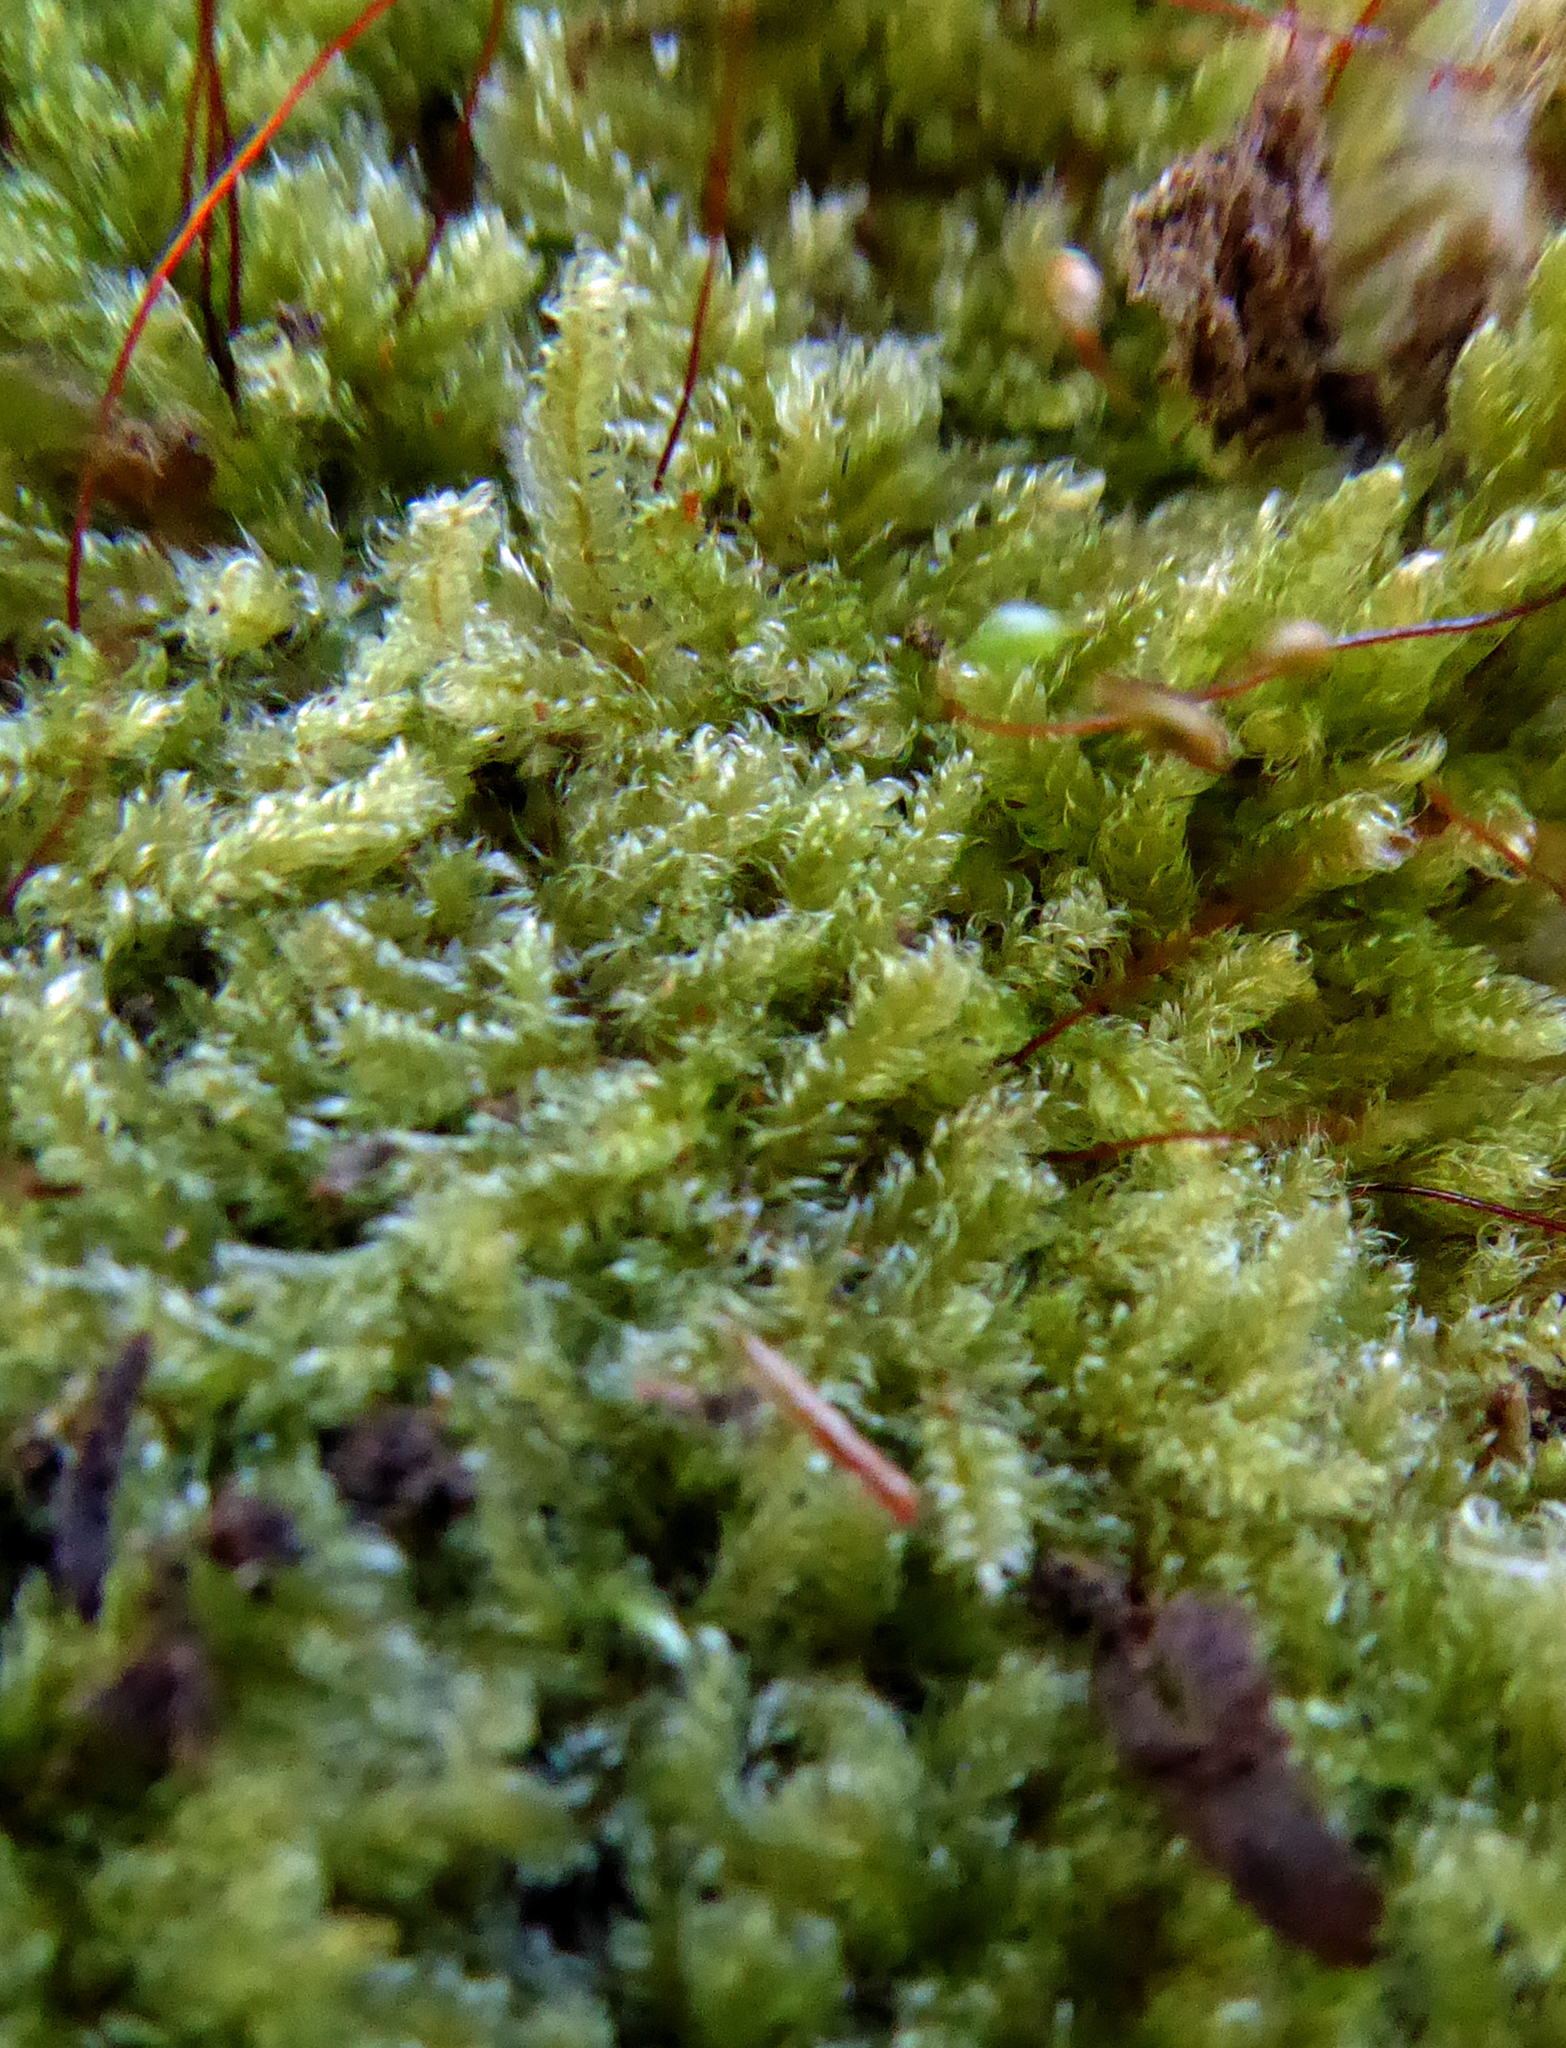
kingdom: Plantae
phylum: Bryophyta
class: Bryopsida
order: Hypnales
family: Pylaisiadelphaceae
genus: Notohypnum
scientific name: Notohypnum chrysogaster
